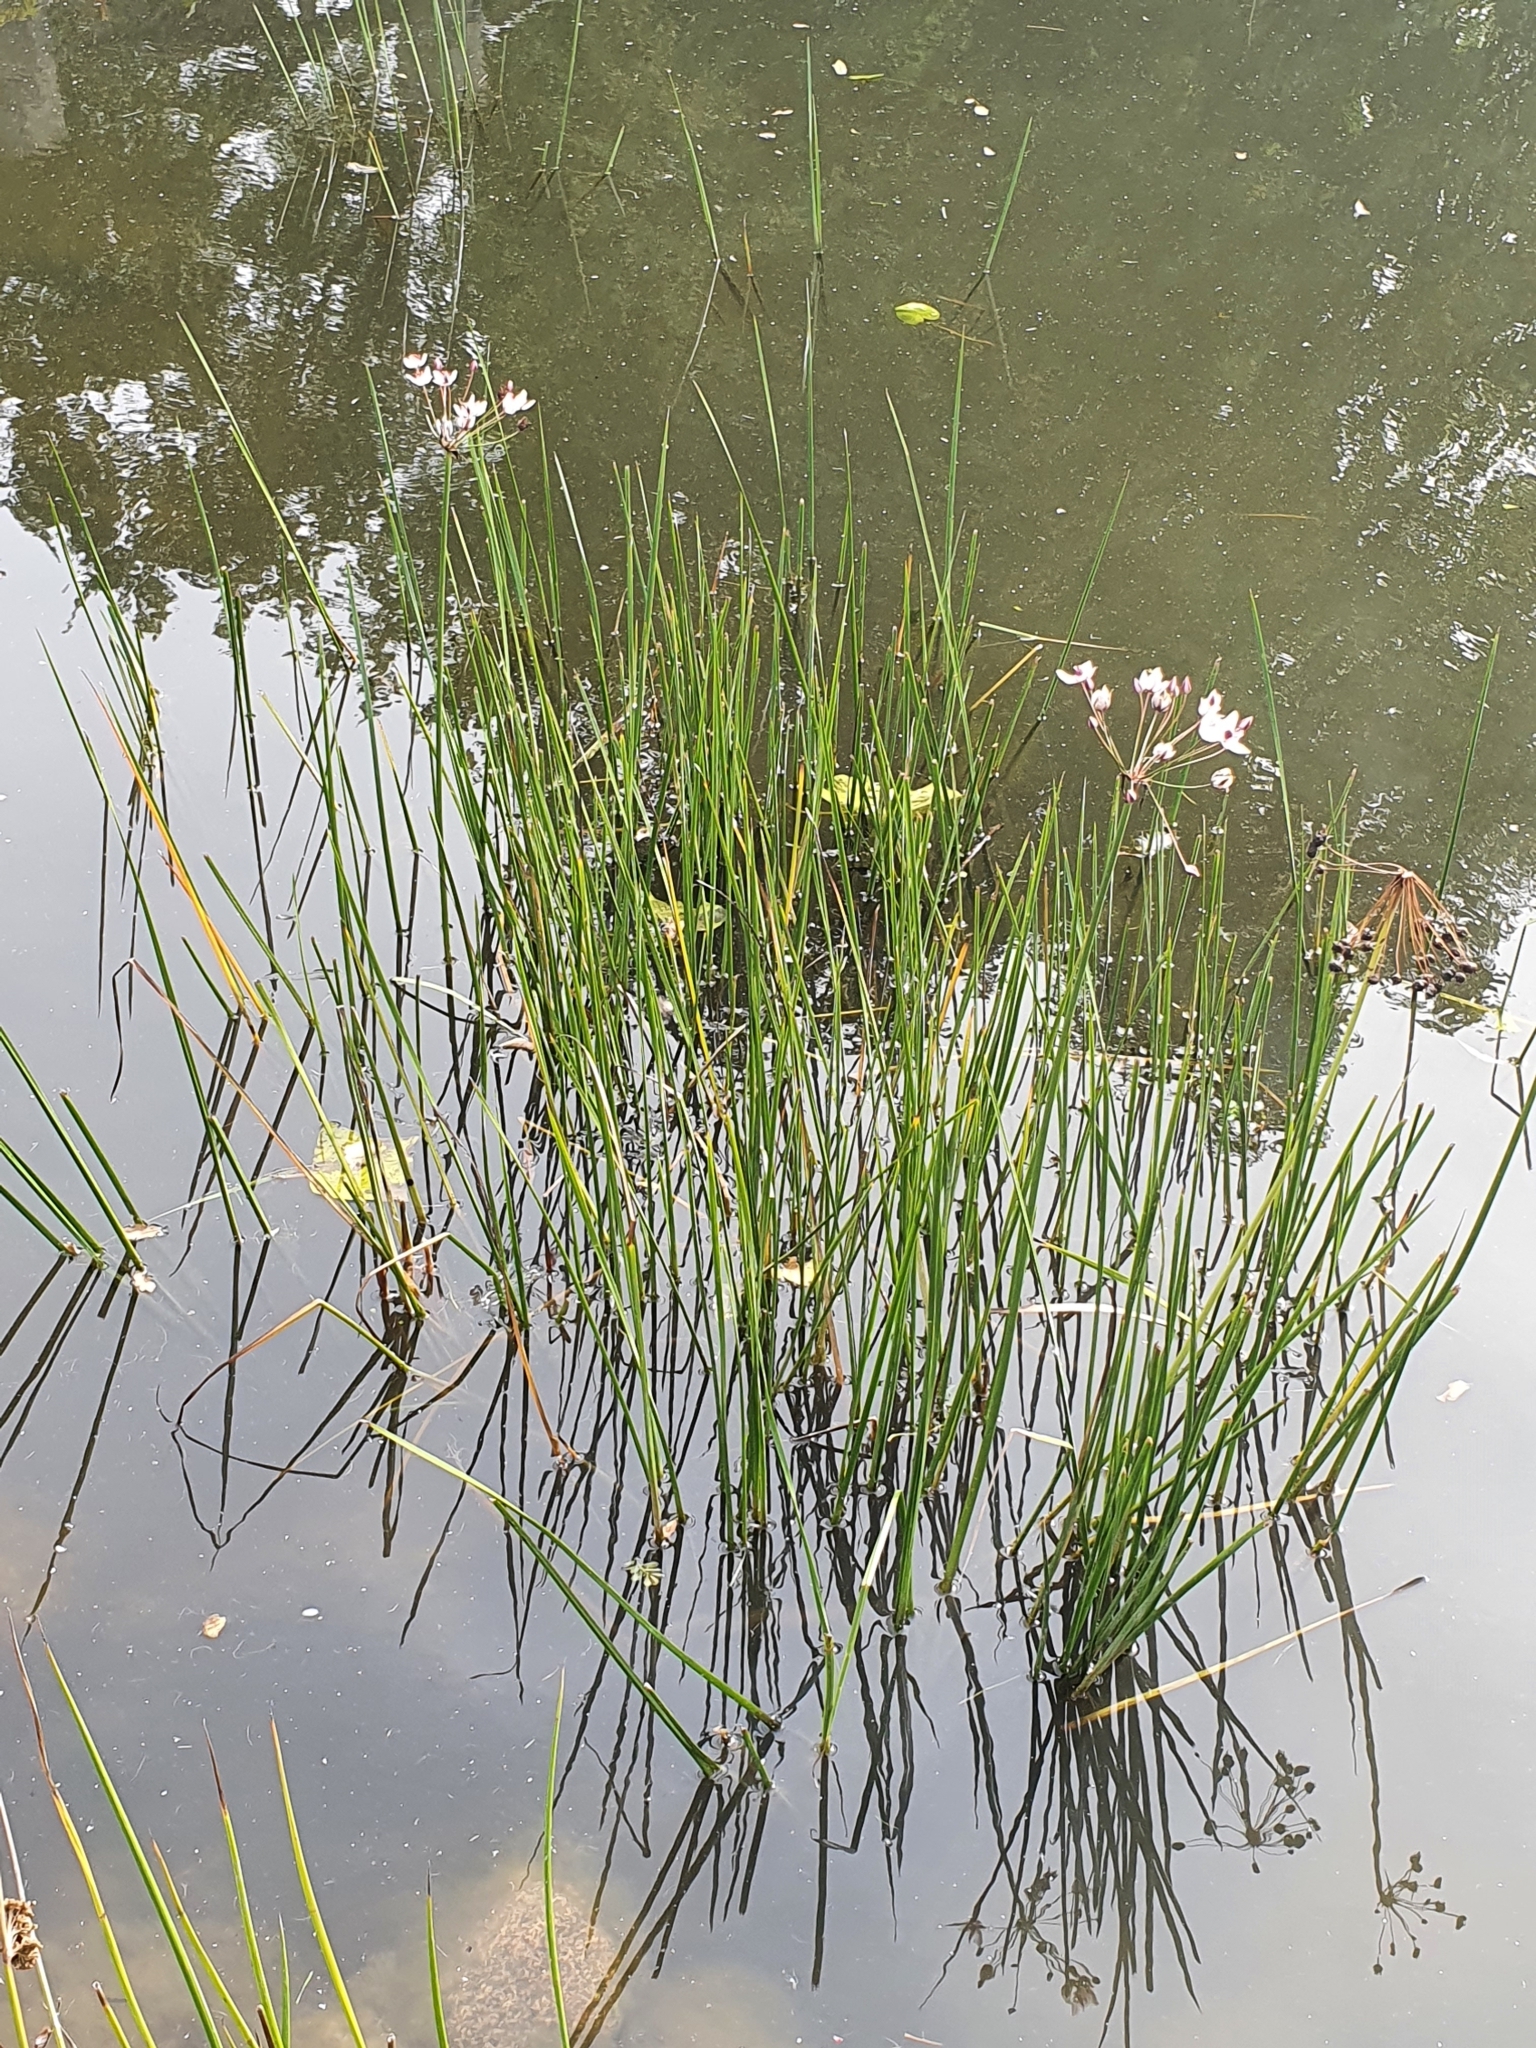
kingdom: Plantae
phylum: Tracheophyta
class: Liliopsida
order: Alismatales
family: Butomaceae
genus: Butomus
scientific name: Butomus umbellatus
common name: Flowering-rush
